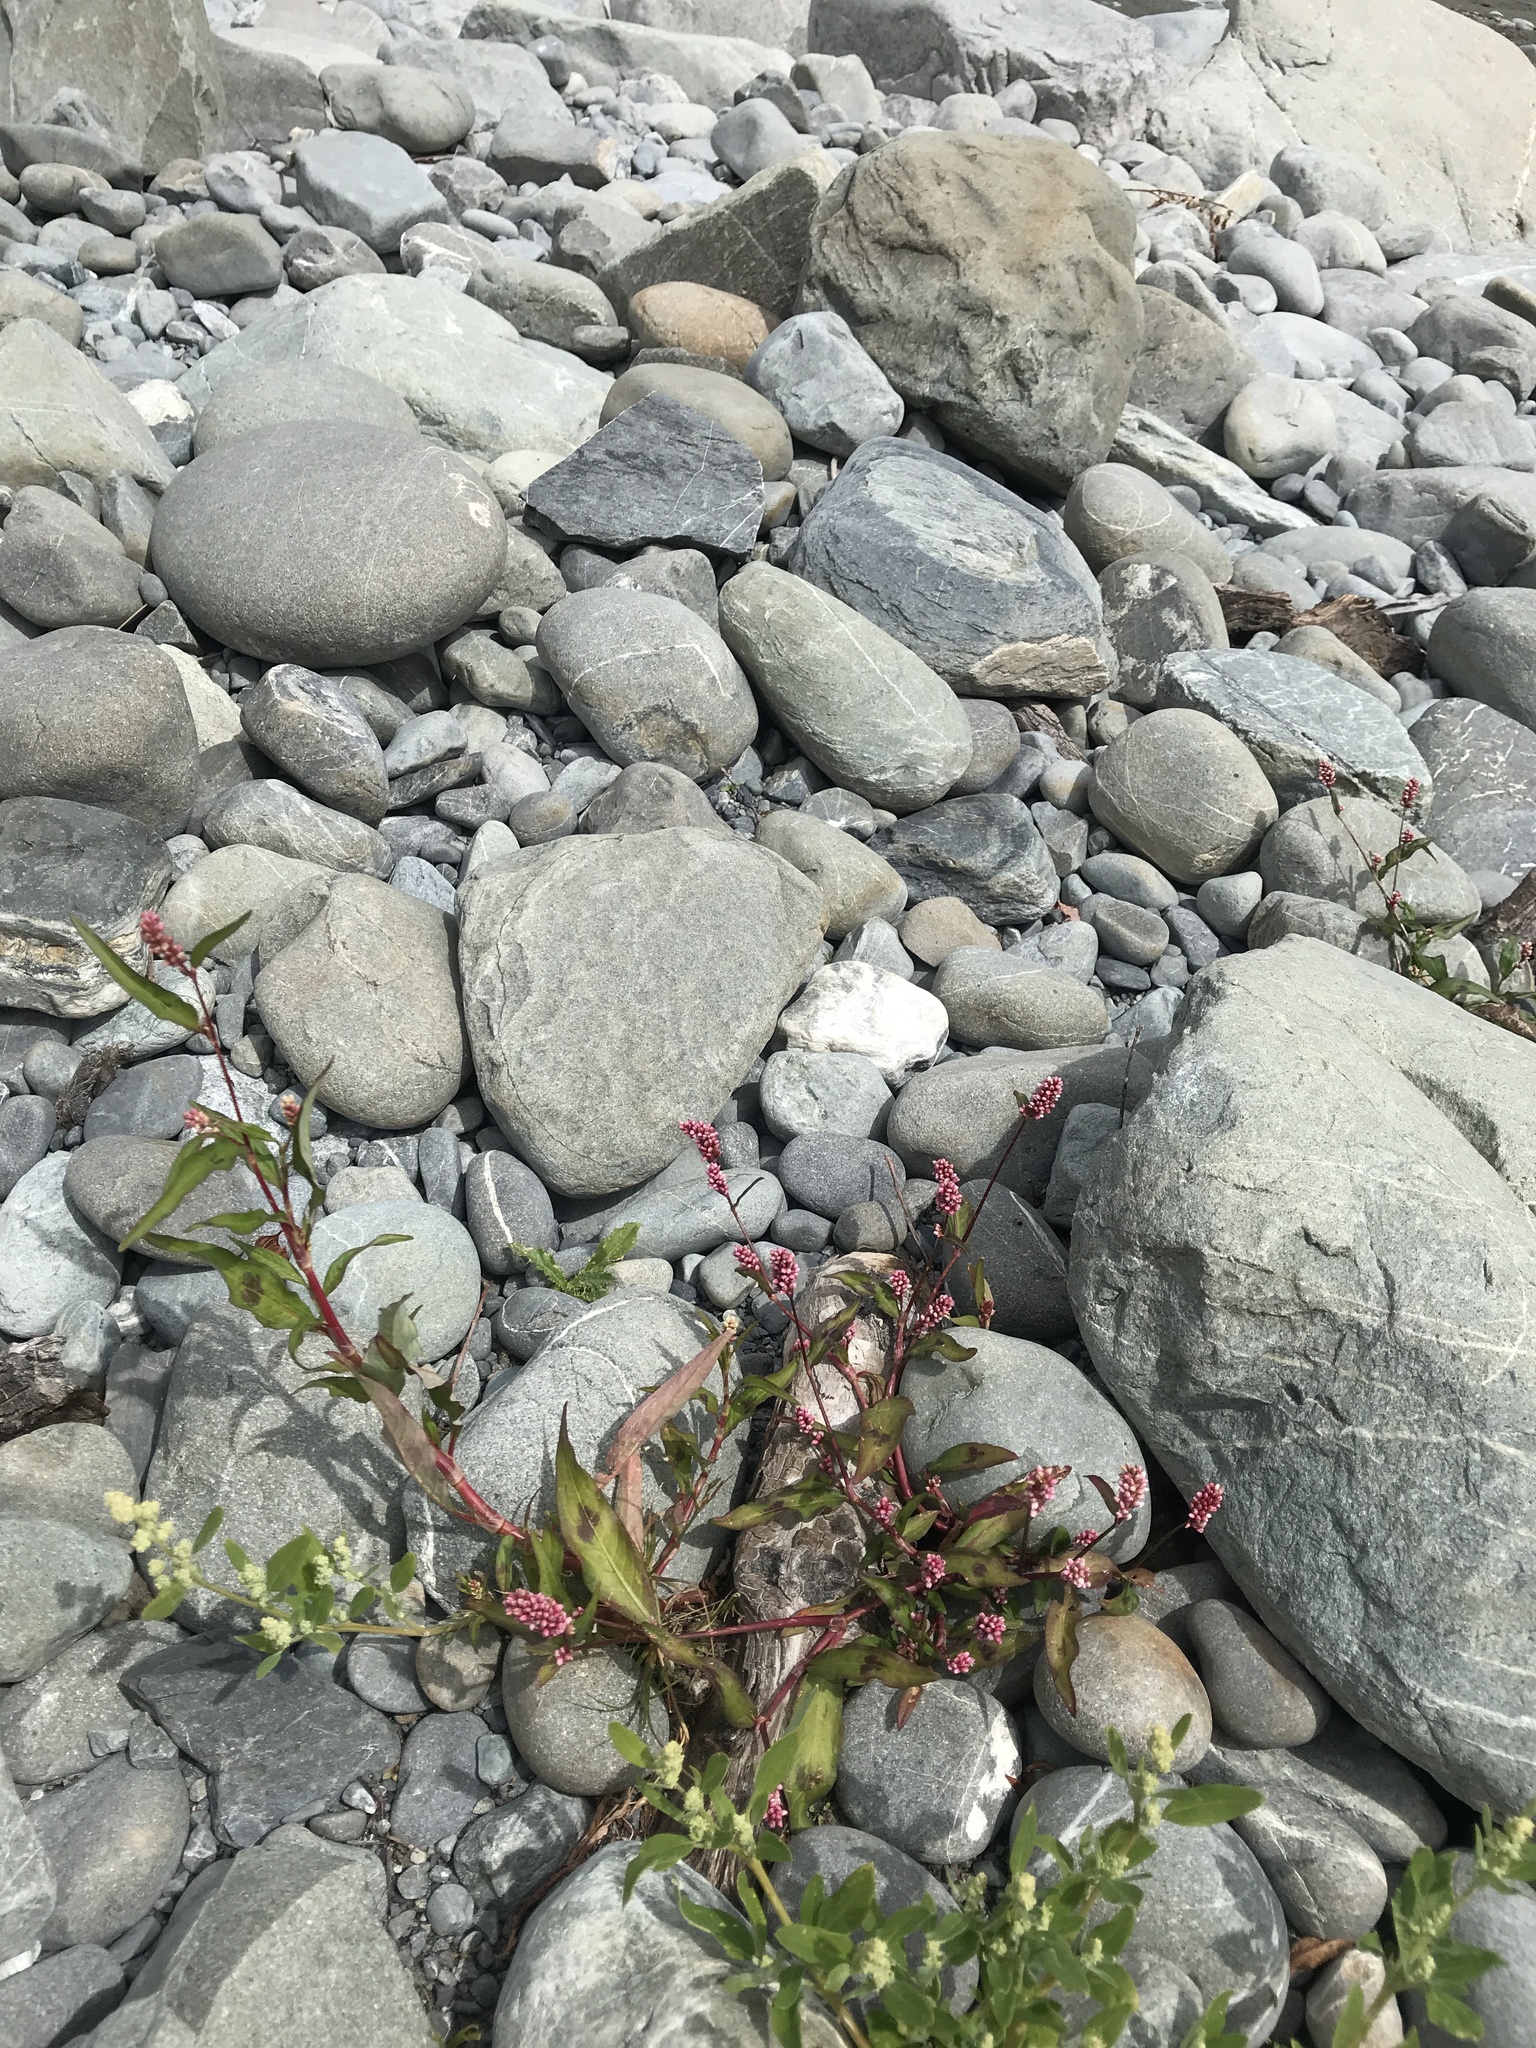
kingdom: Plantae
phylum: Tracheophyta
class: Magnoliopsida
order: Caryophyllales
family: Polygonaceae
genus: Persicaria
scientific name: Persicaria maculosa
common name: Redshank
